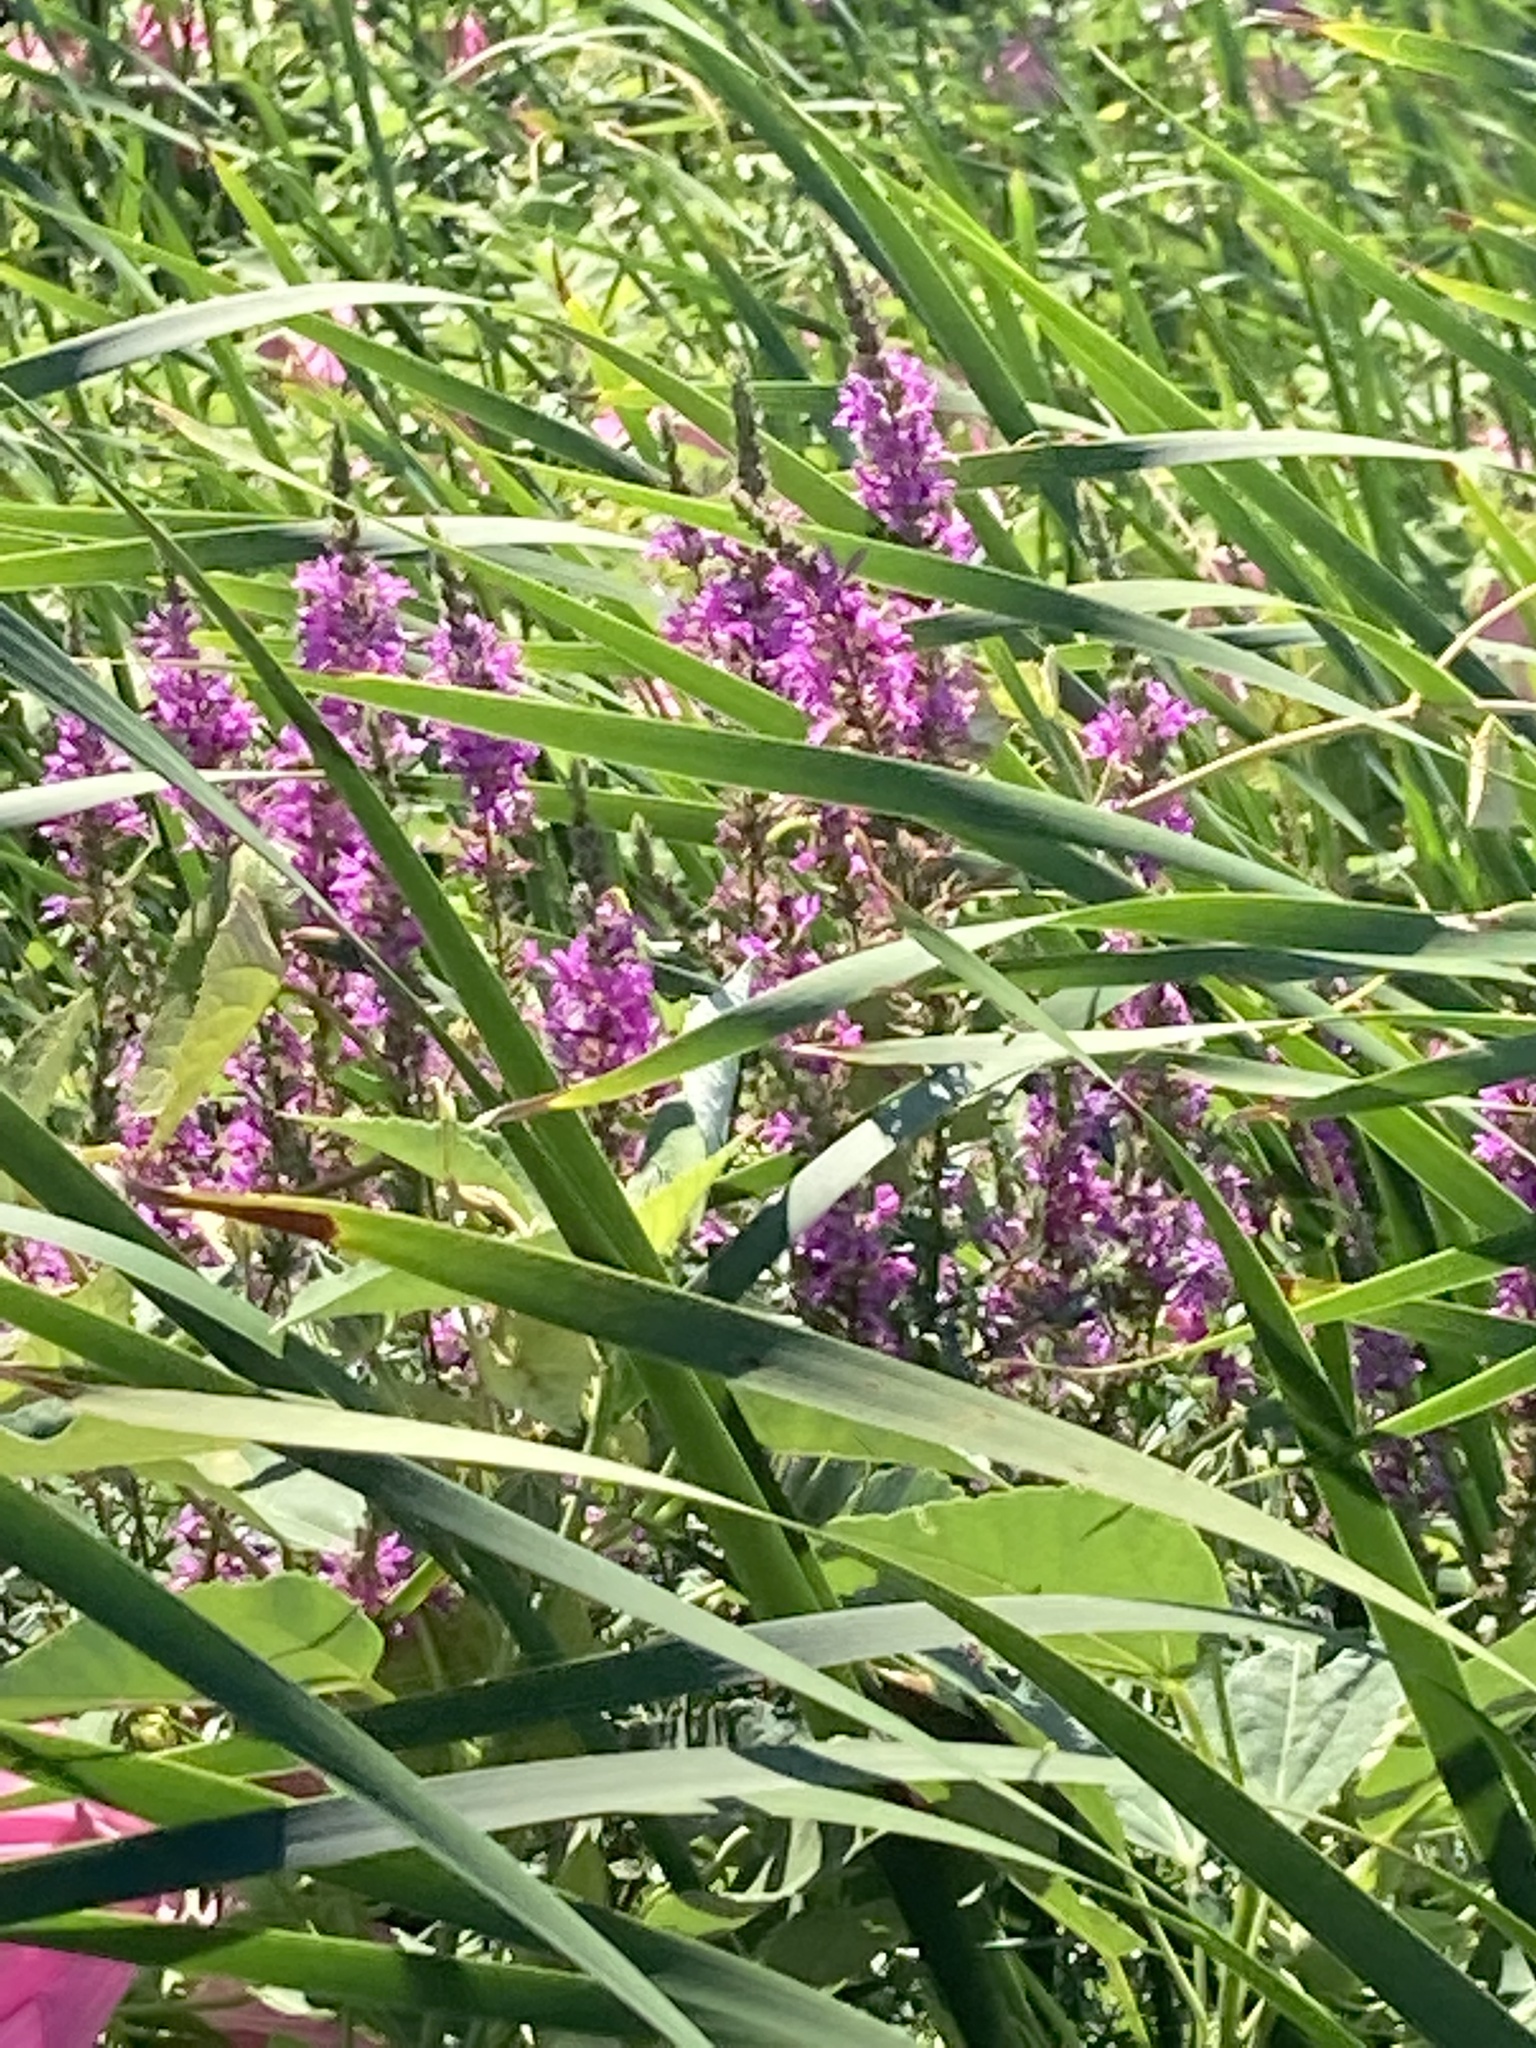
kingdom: Plantae
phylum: Tracheophyta
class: Magnoliopsida
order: Myrtales
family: Lythraceae
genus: Lythrum
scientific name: Lythrum salicaria
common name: Purple loosestrife
